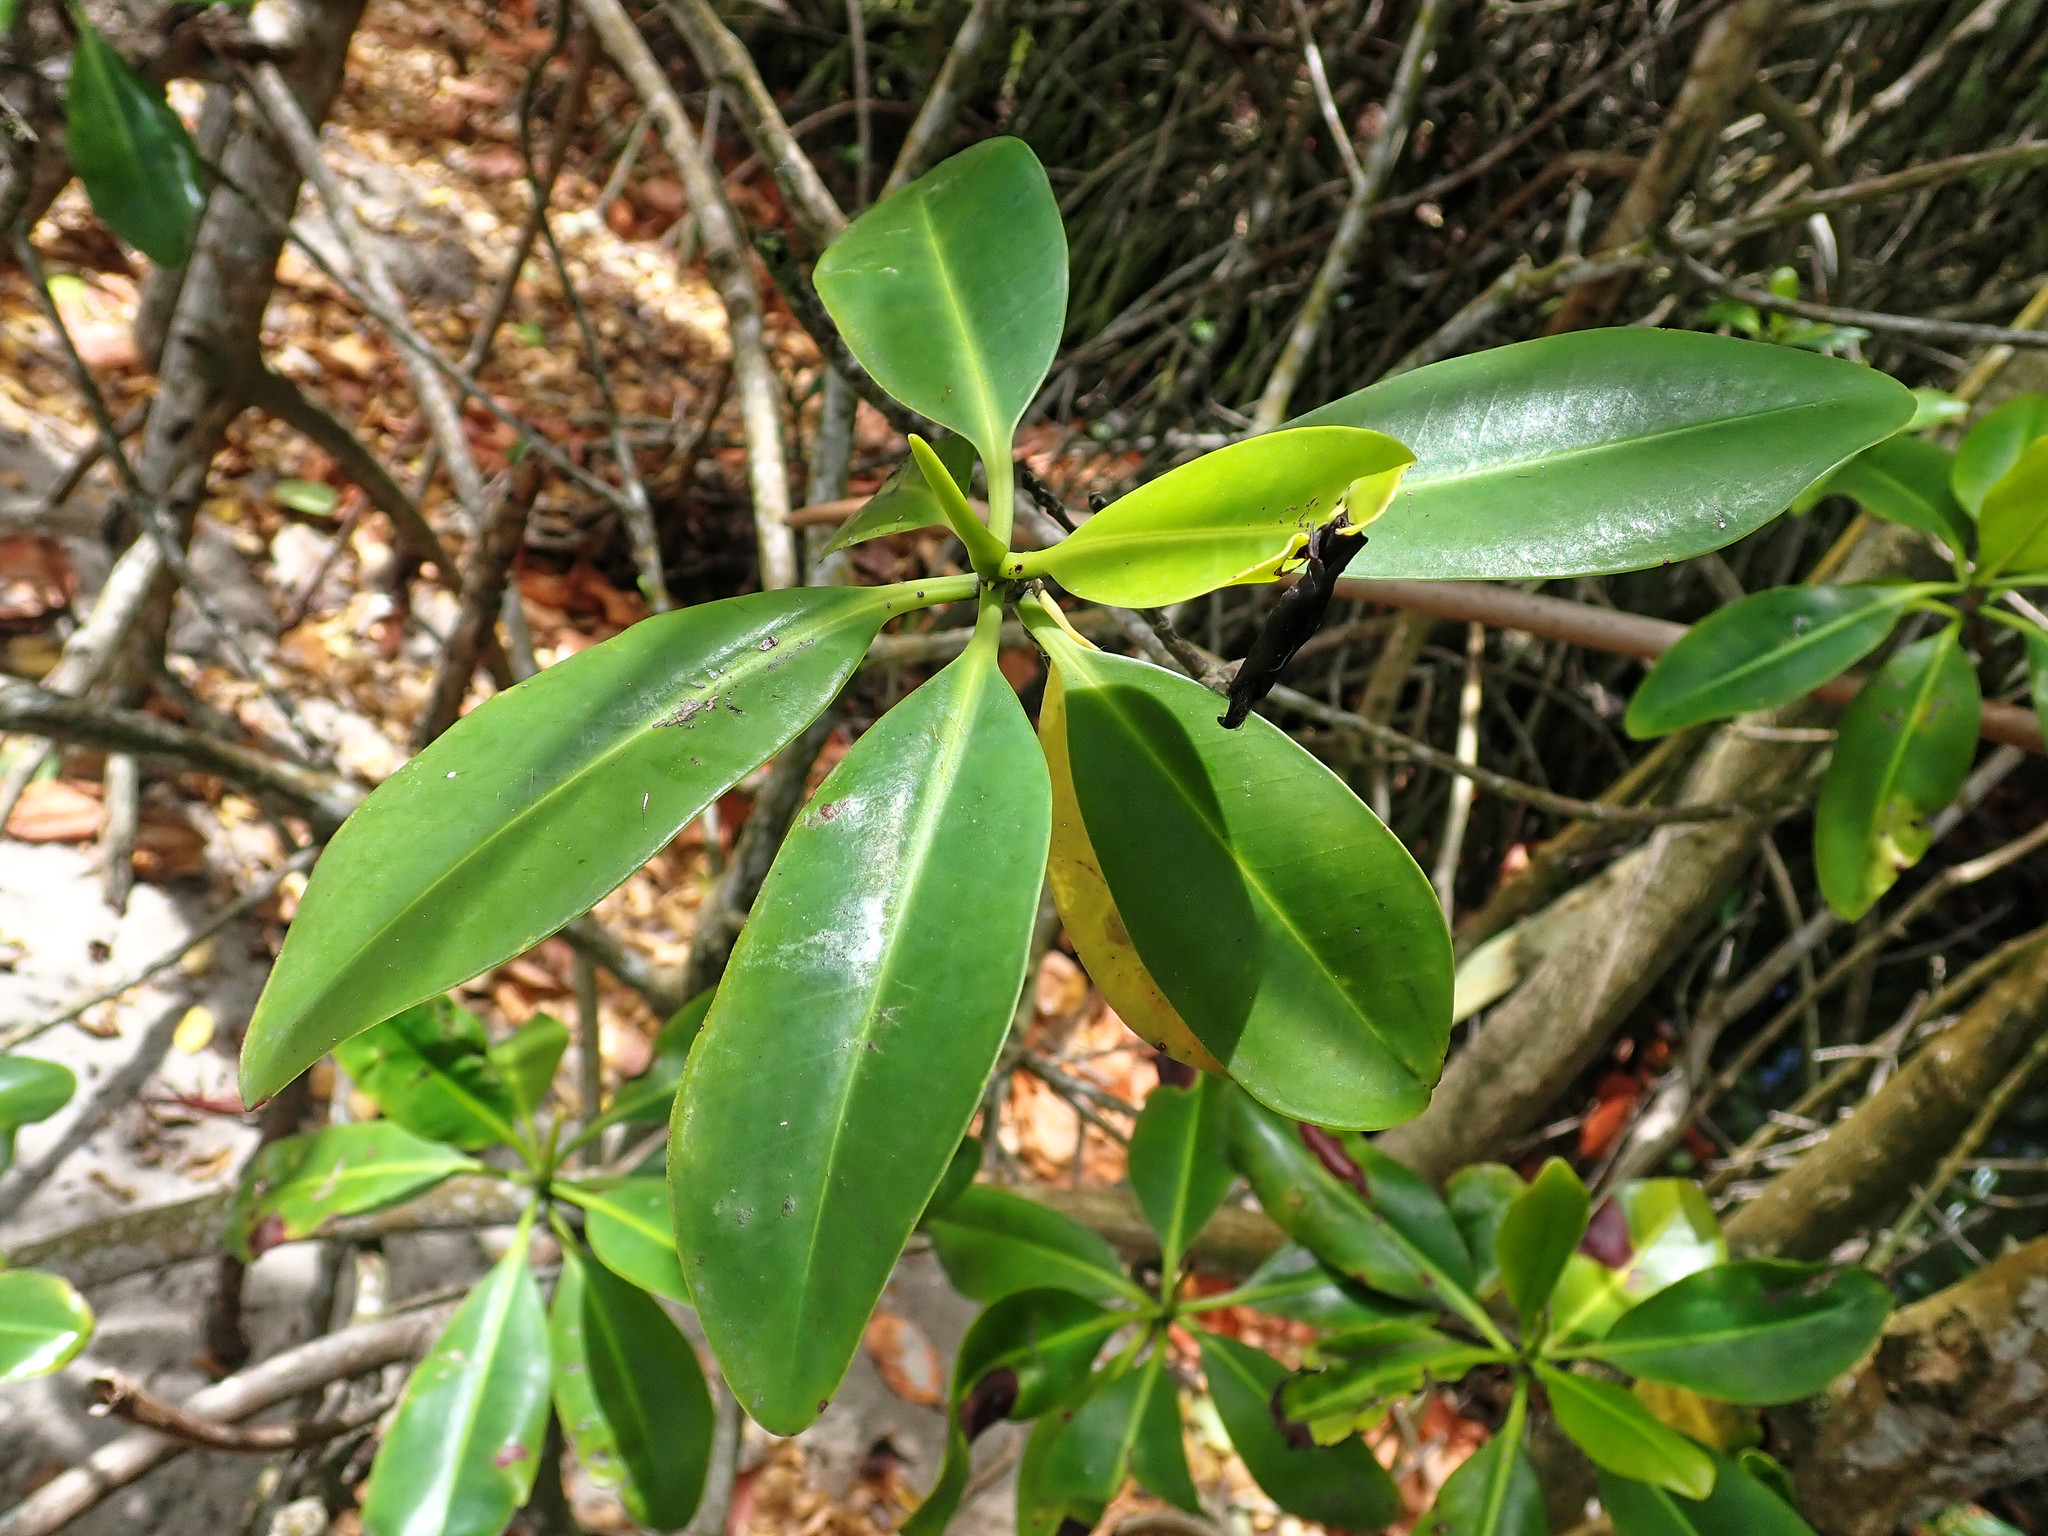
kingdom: Plantae
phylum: Tracheophyta
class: Magnoliopsida
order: Malpighiales
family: Rhizophoraceae
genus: Rhizophora
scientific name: Rhizophora mangle
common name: Red mangrove
